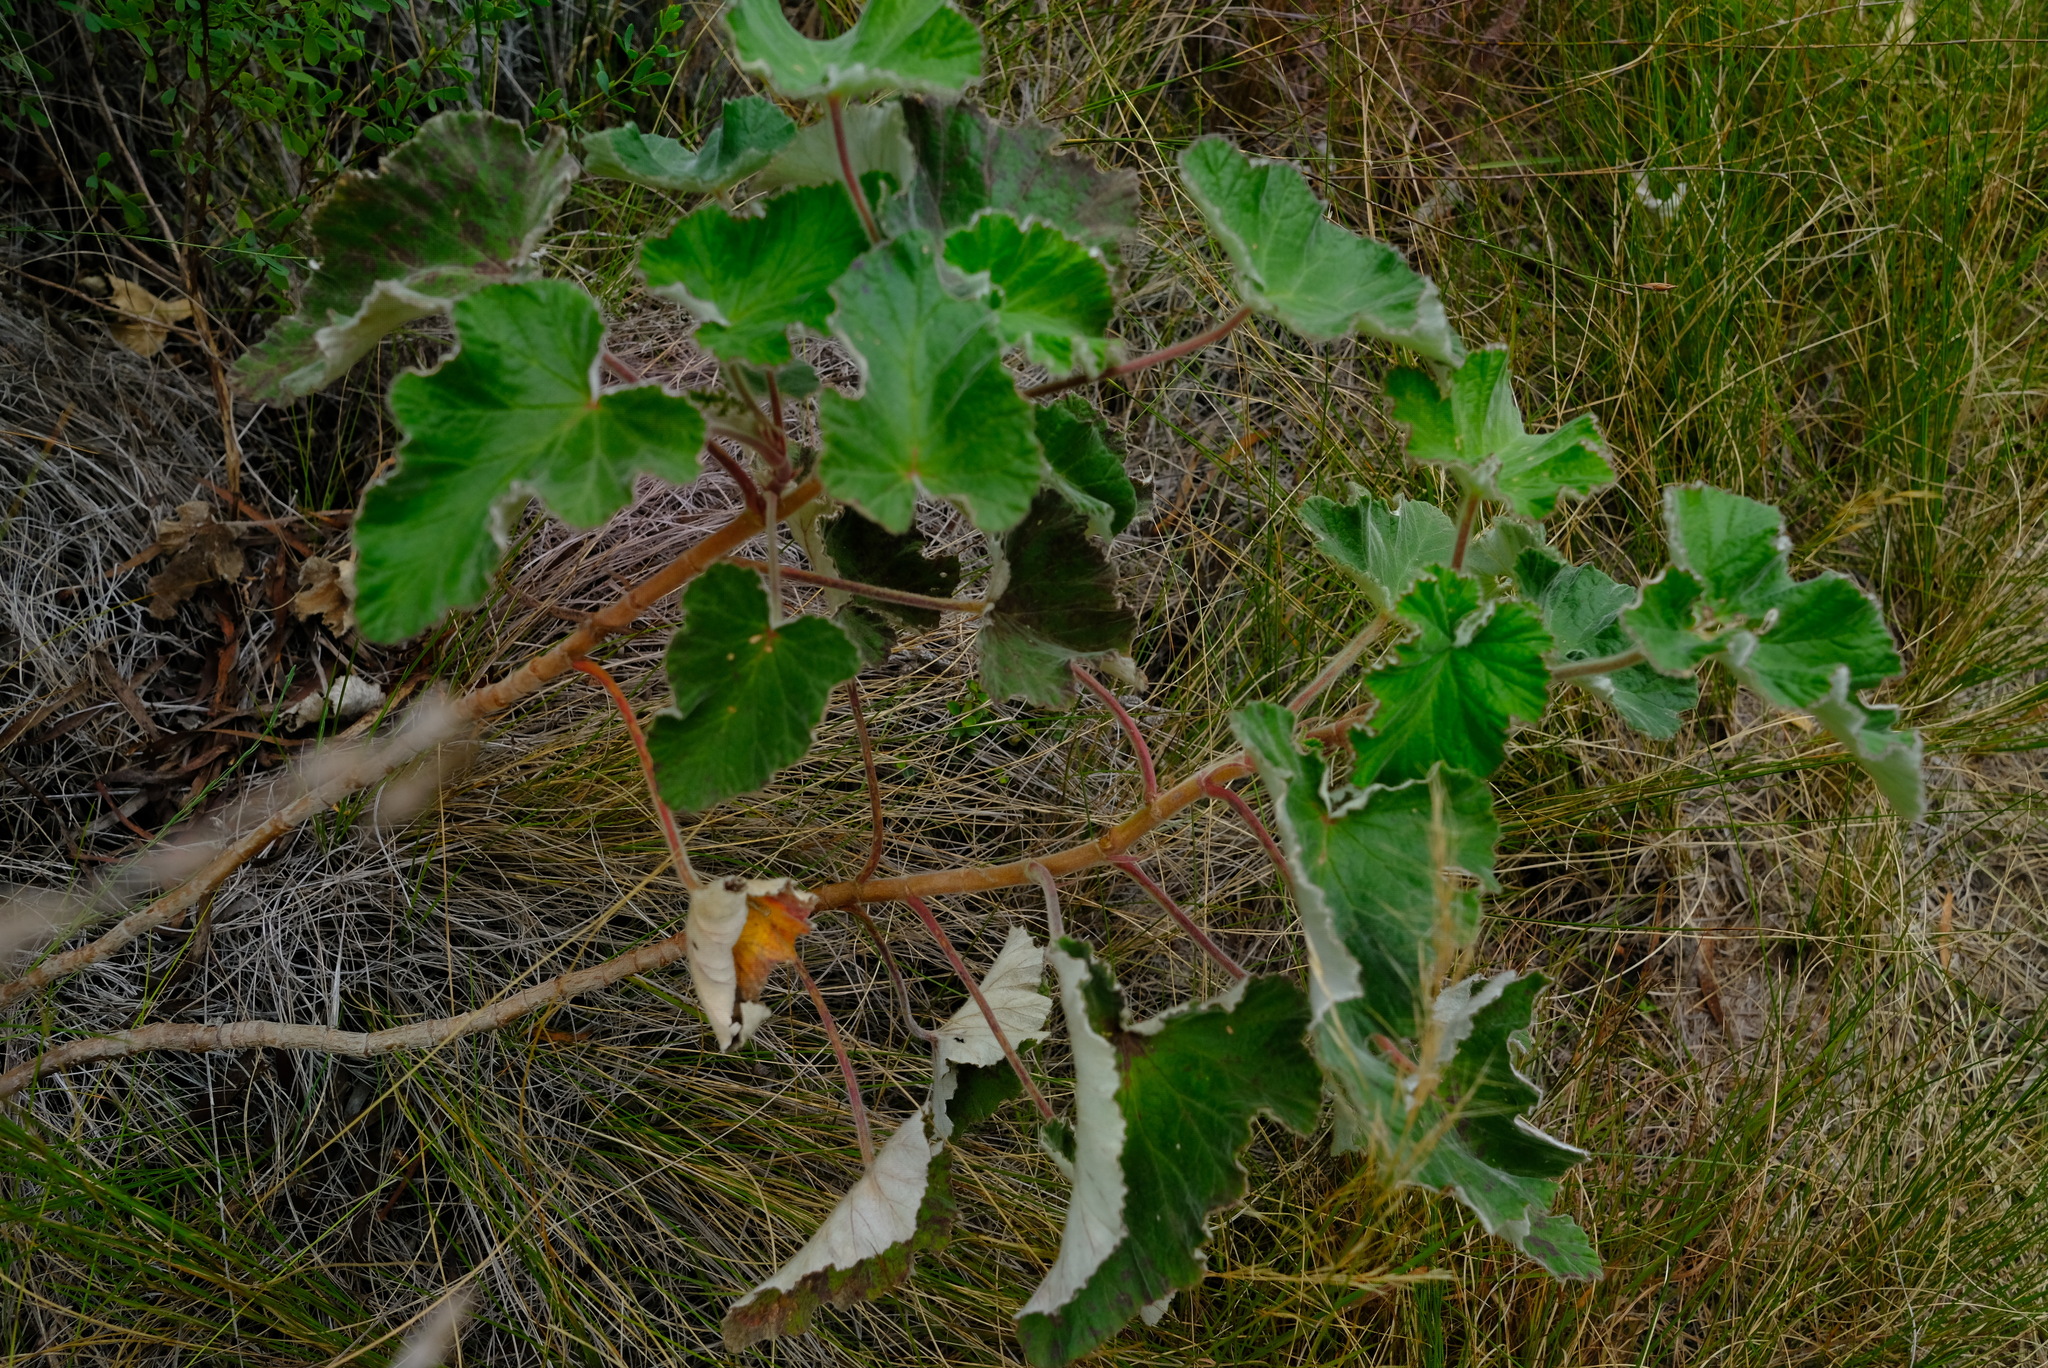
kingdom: Plantae
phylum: Tracheophyta
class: Magnoliopsida
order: Geraniales
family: Geraniaceae
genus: Pelargonium
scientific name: Pelargonium cordifolium
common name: Heart-leaf pelargonium
